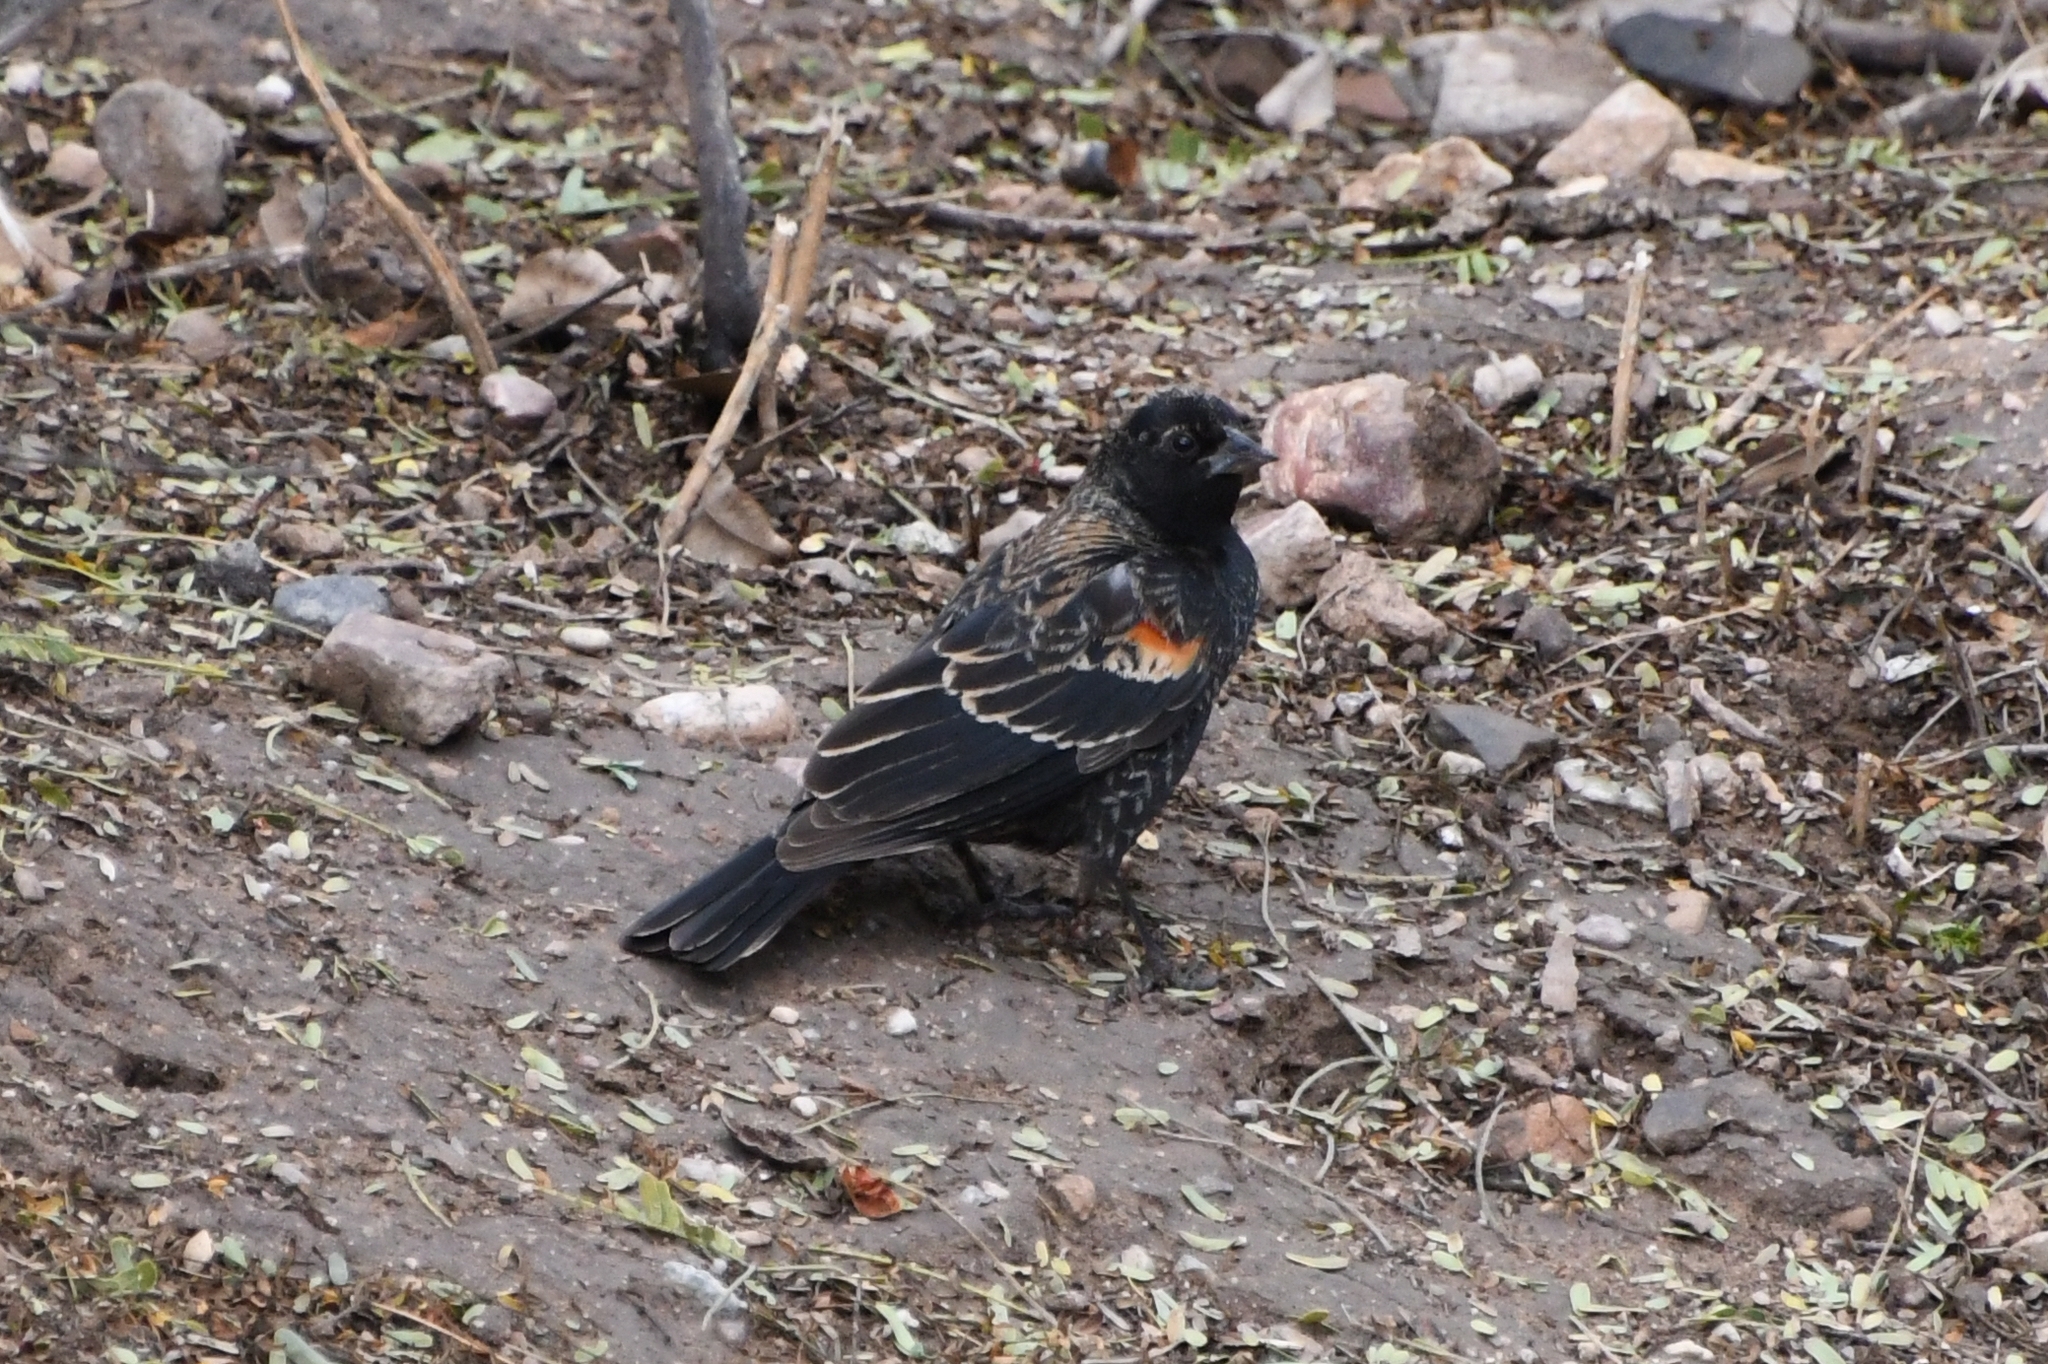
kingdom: Animalia
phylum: Chordata
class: Aves
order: Passeriformes
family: Icteridae
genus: Agelaius
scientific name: Agelaius phoeniceus
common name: Red-winged blackbird
